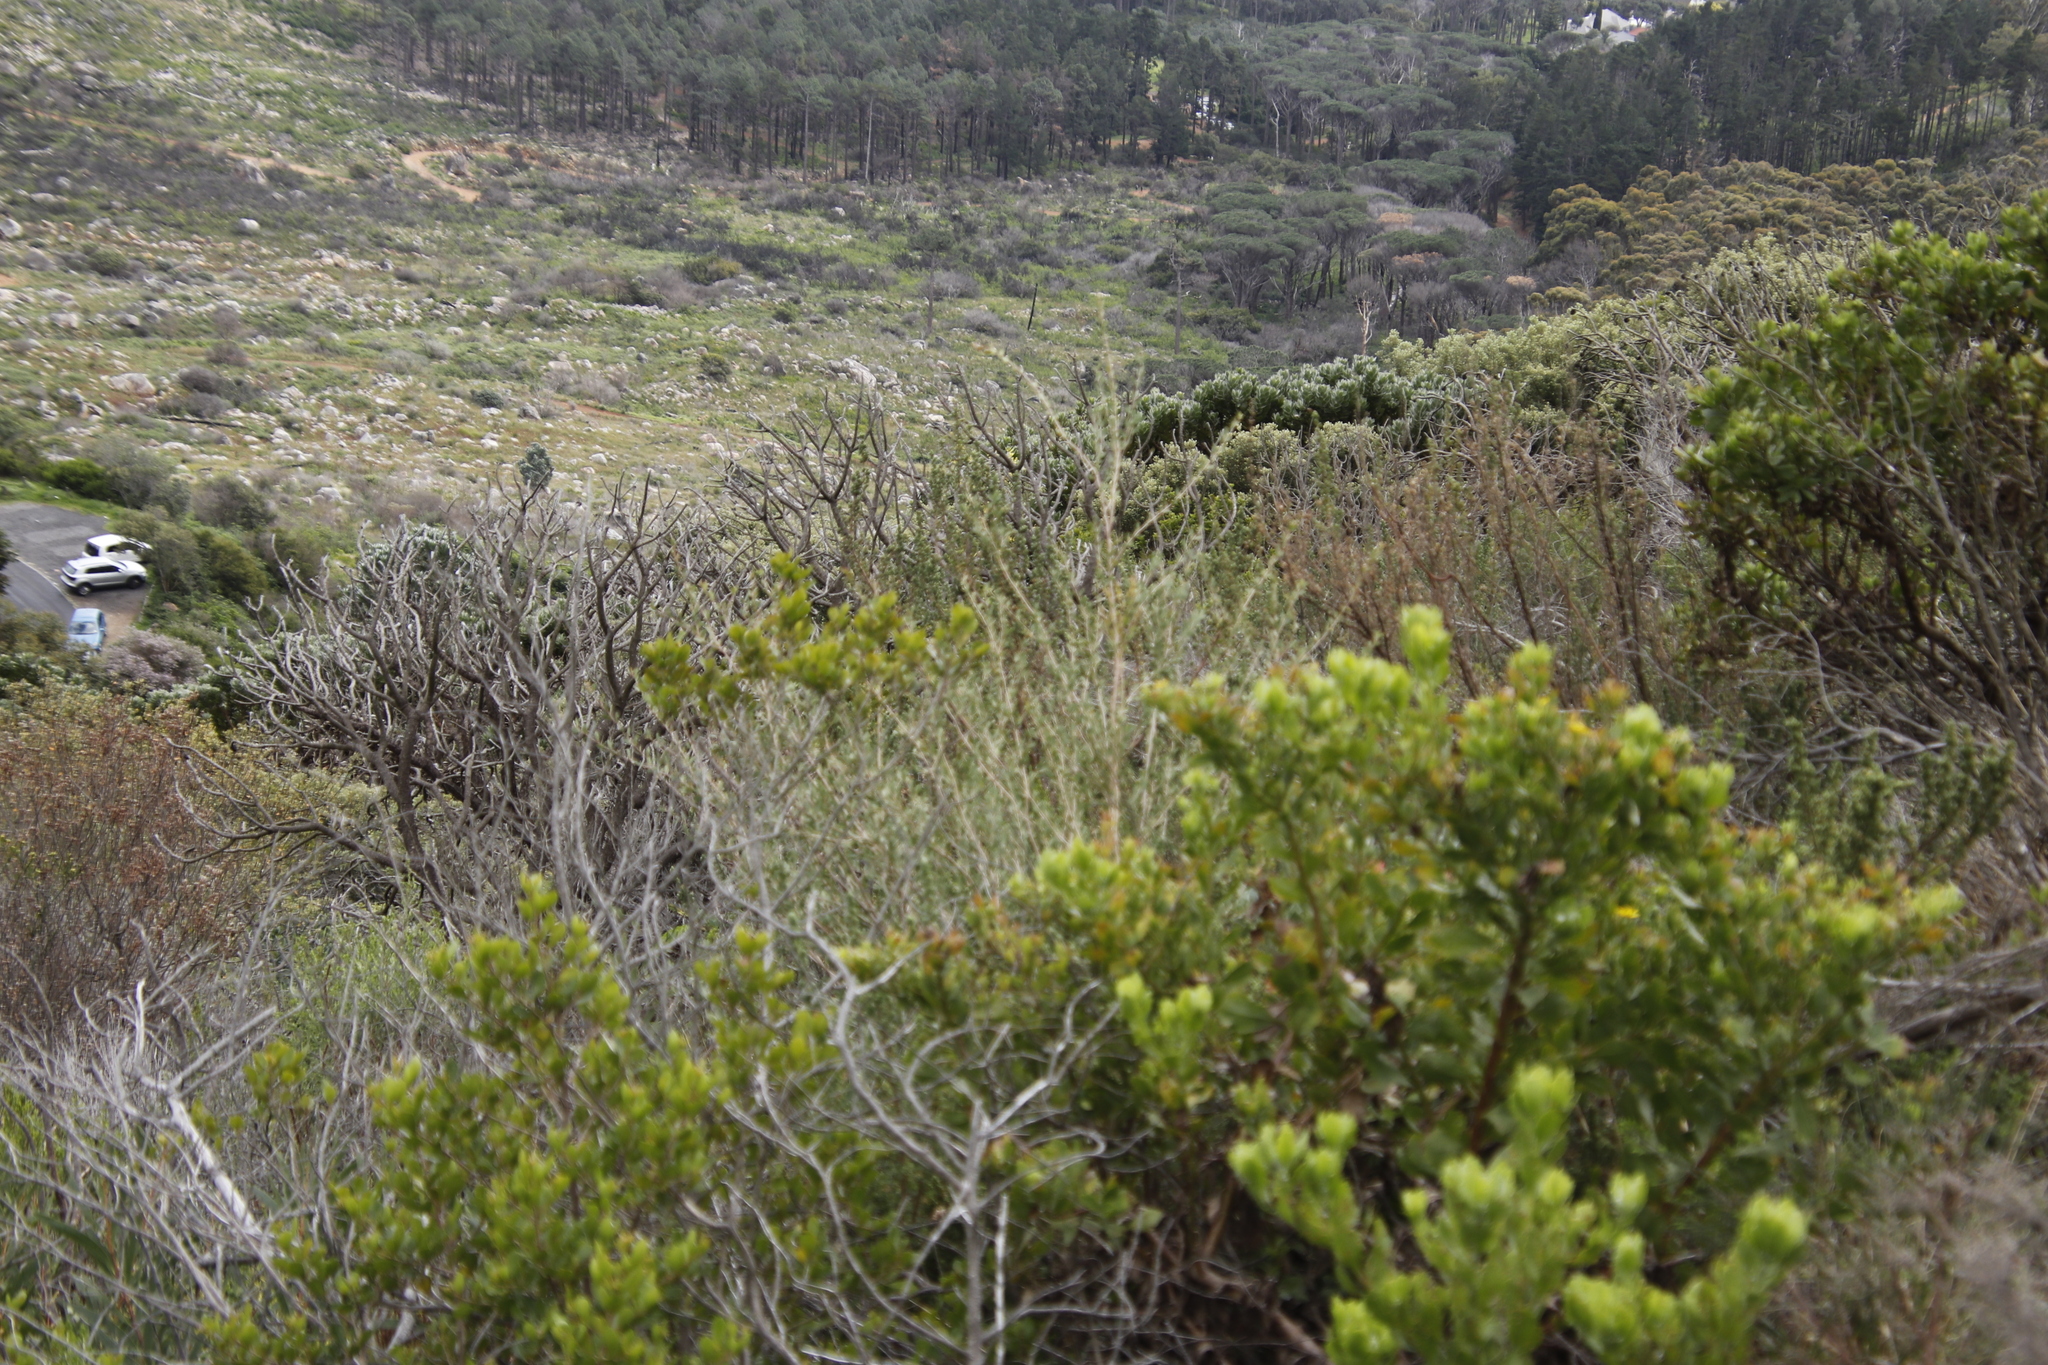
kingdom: Plantae
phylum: Tracheophyta
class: Magnoliopsida
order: Proteales
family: Proteaceae
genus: Leucospermum
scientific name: Leucospermum conocarpodendron
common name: Tree pincushion
